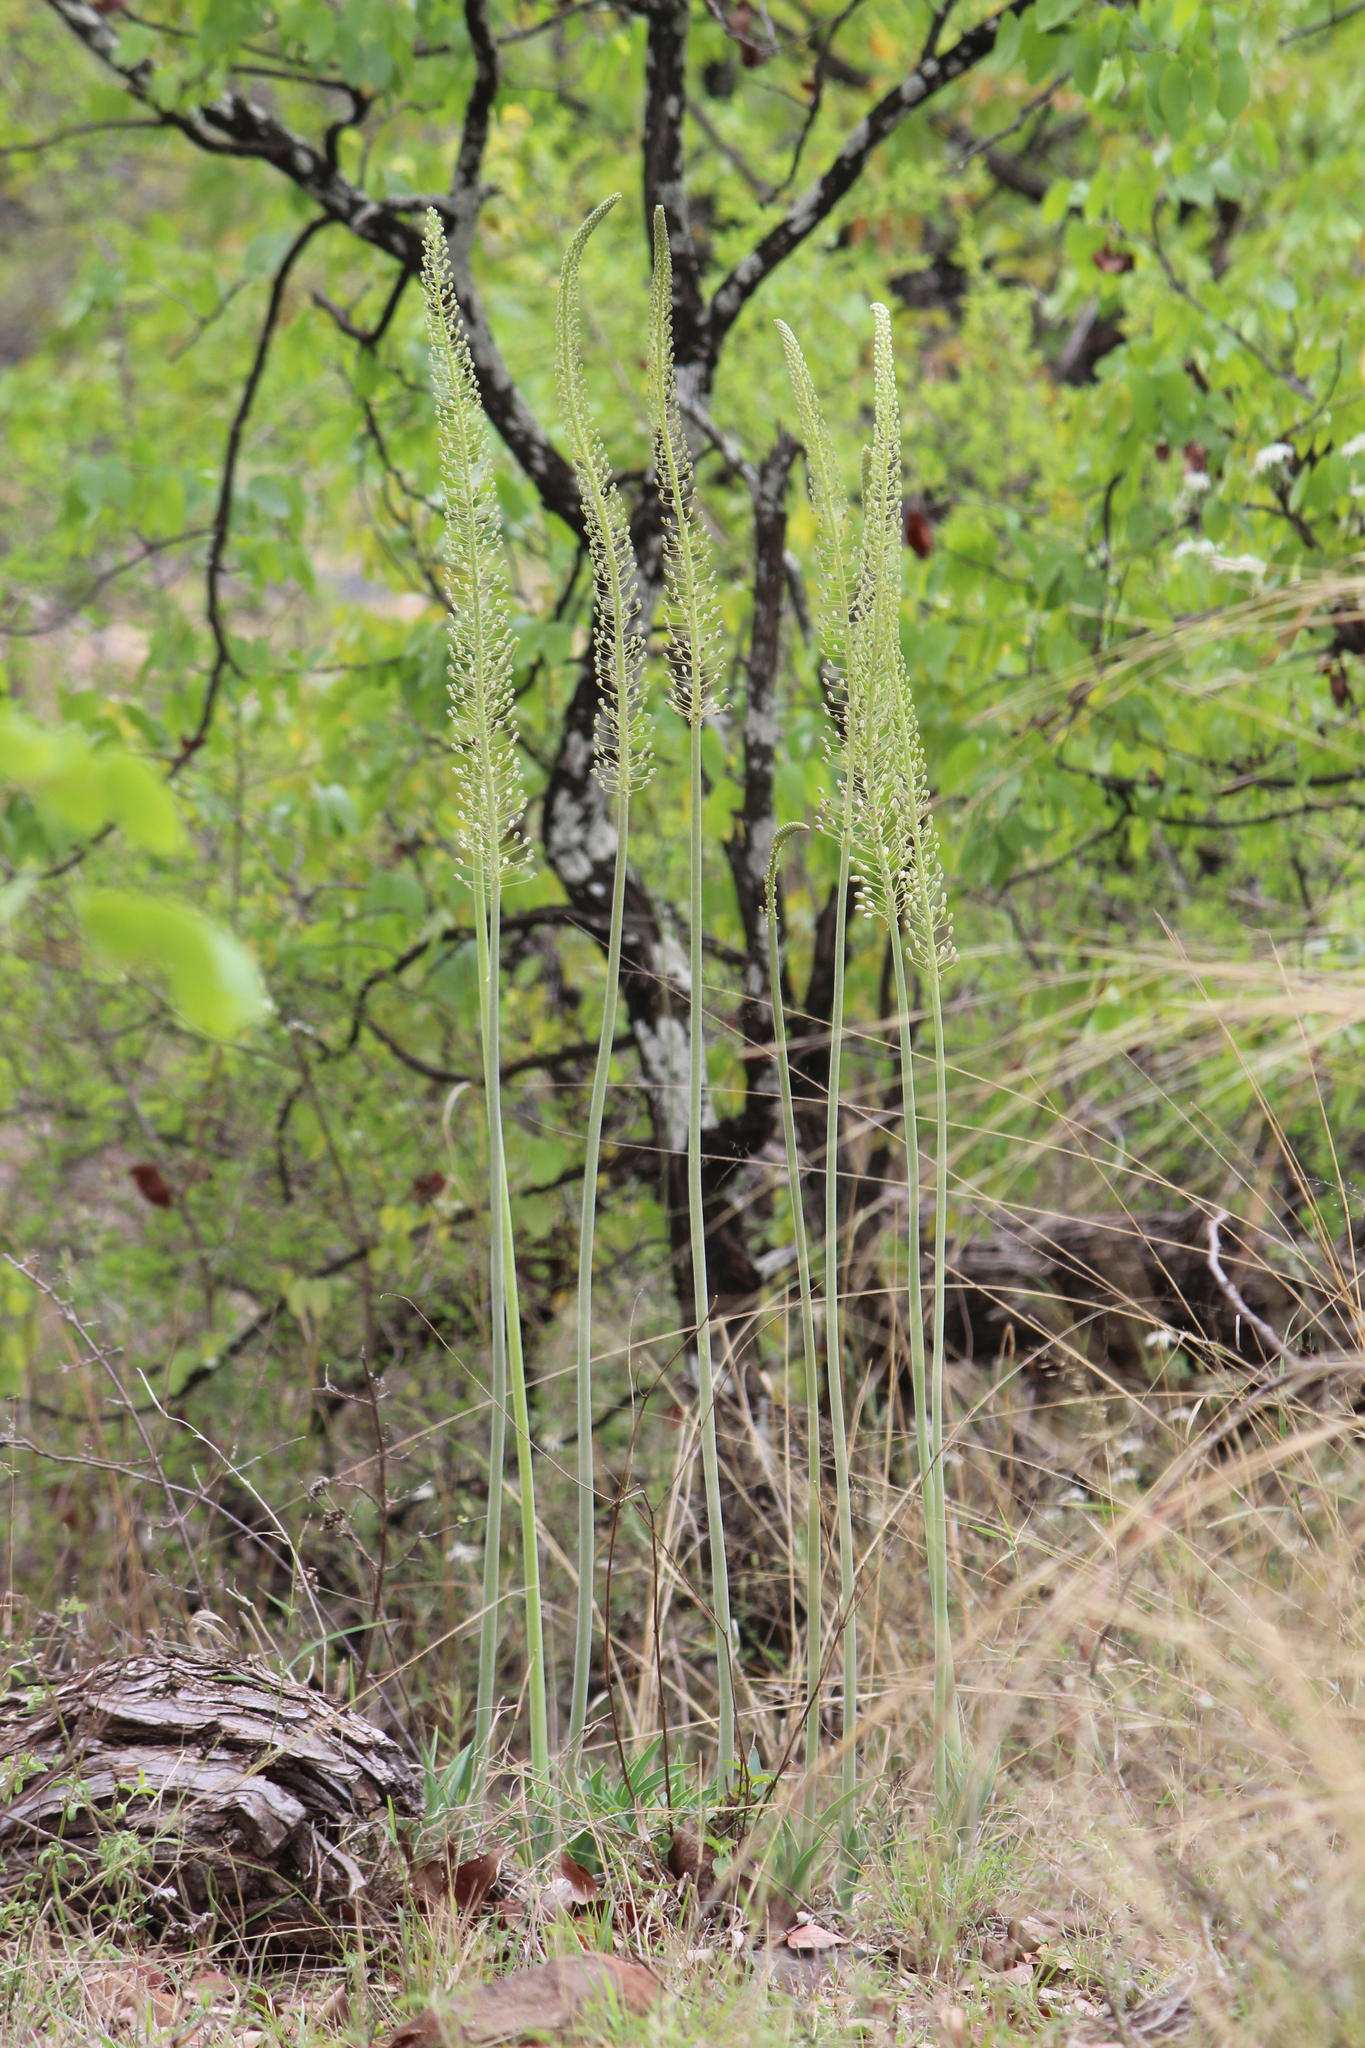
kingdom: Plantae
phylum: Tracheophyta
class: Liliopsida
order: Asparagales
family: Asparagaceae
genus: Drimia
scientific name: Drimia altissima
